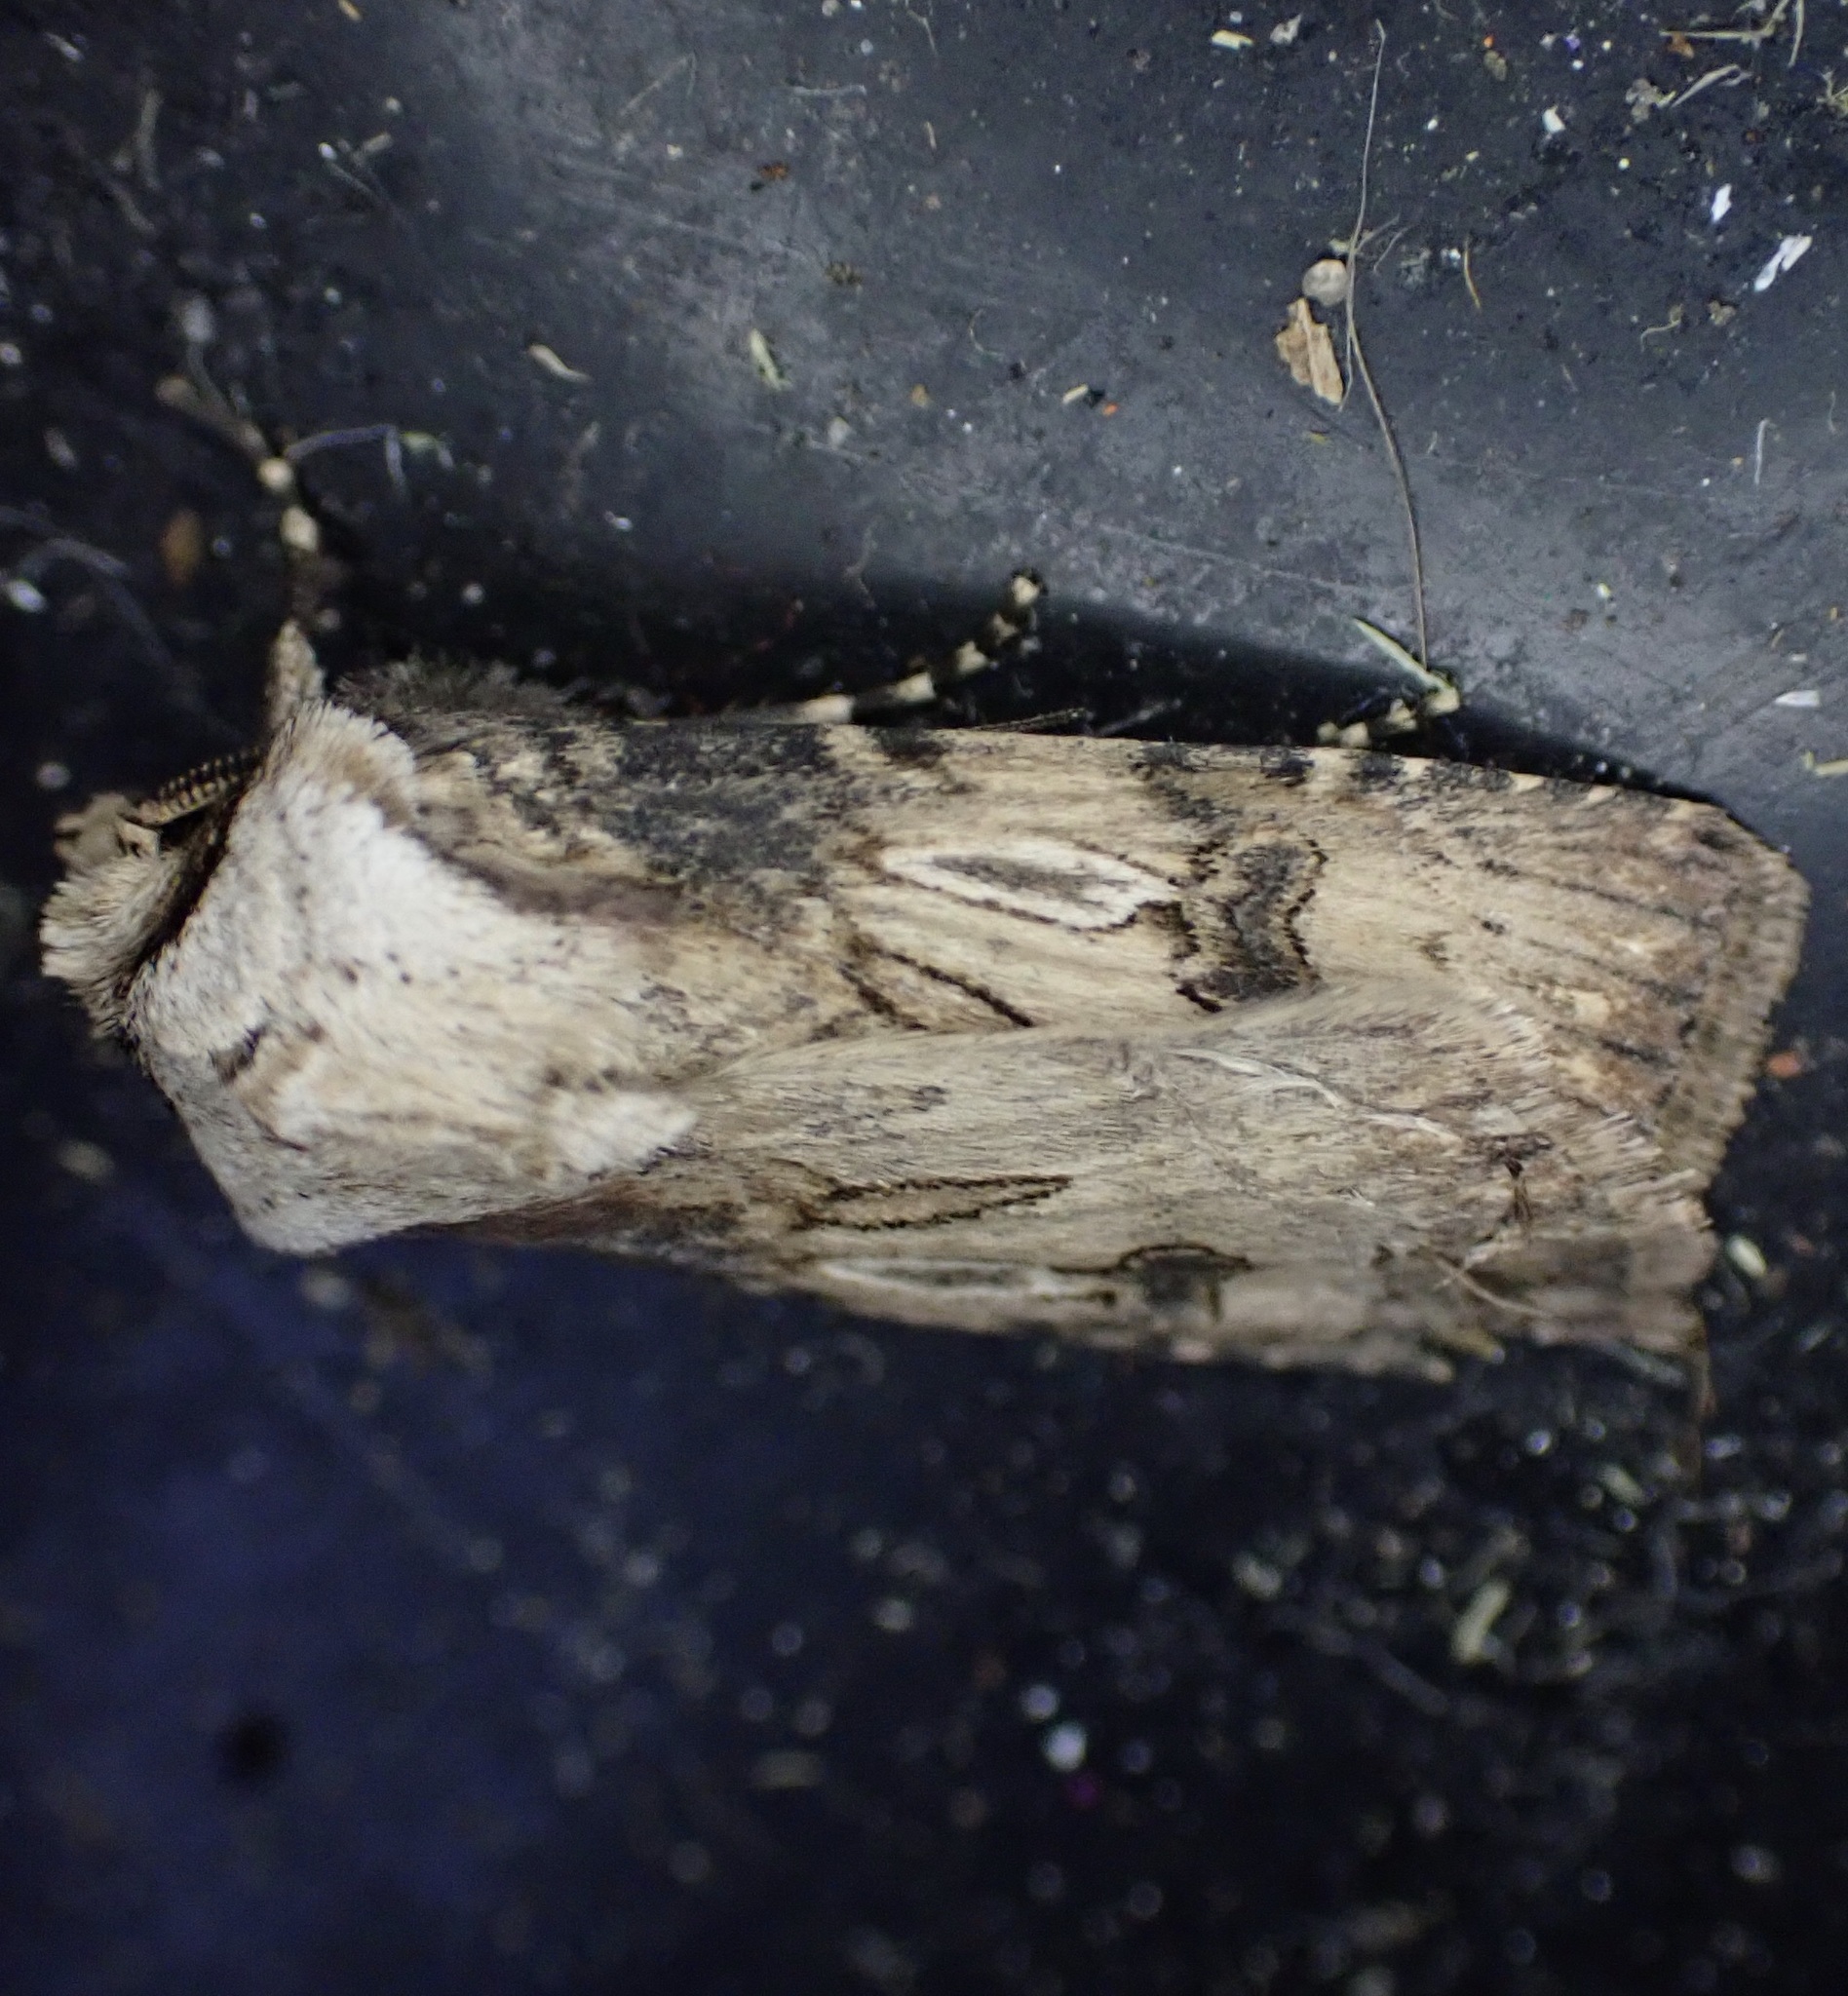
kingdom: Animalia
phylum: Arthropoda
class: Insecta
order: Lepidoptera
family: Noctuidae
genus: Agrotis
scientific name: Agrotis puta
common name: Shuttle-shaped dart
